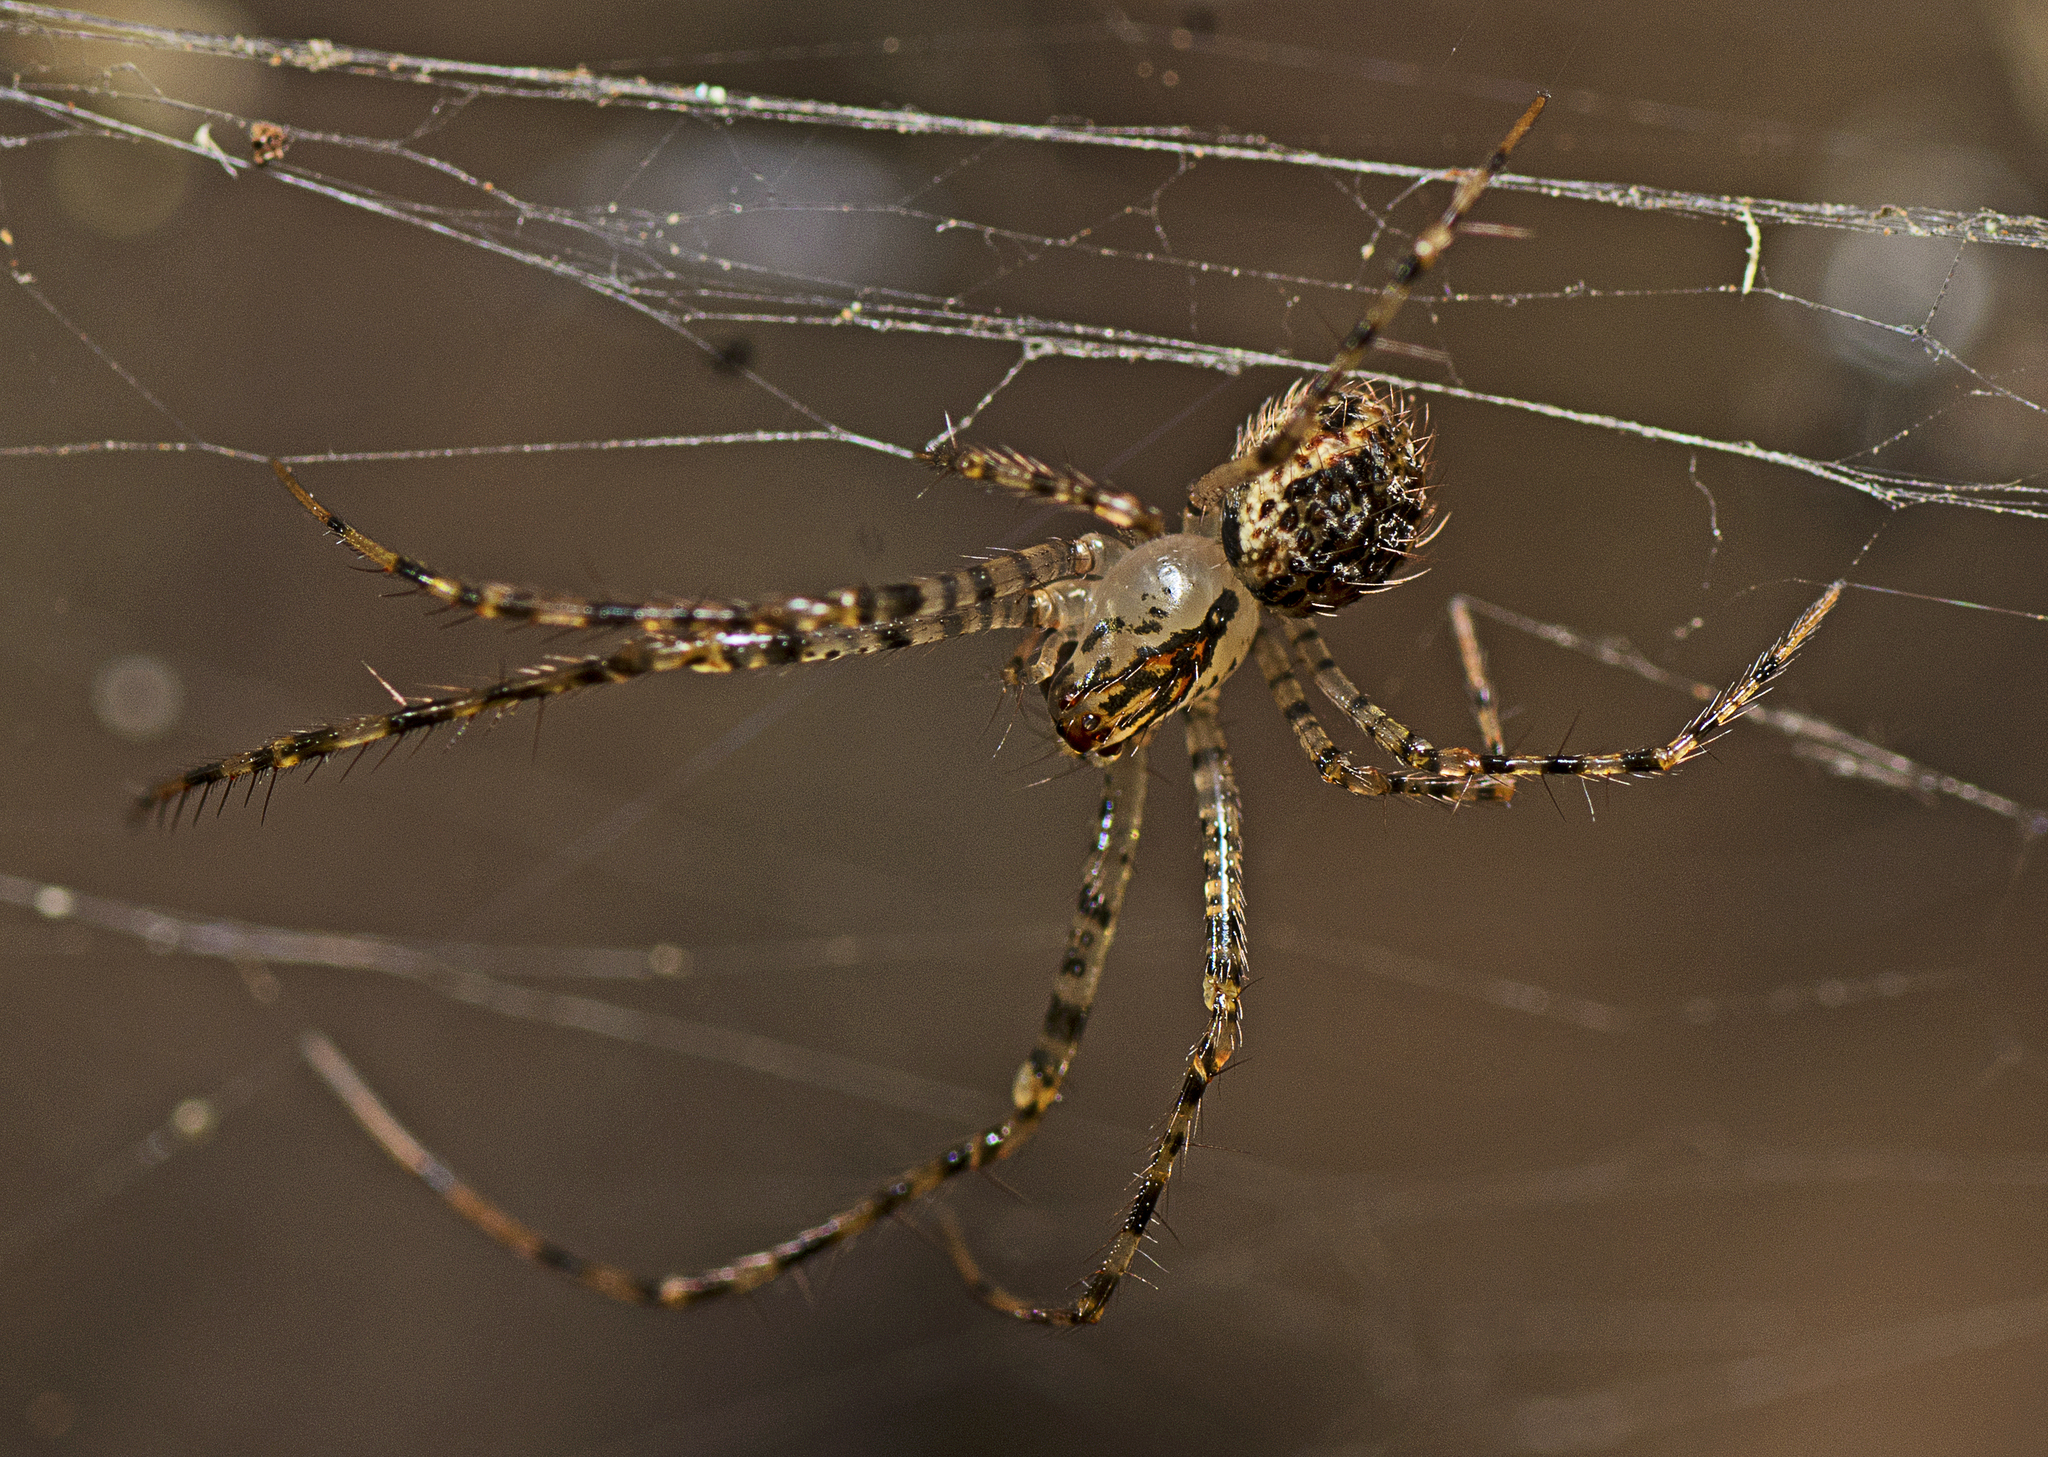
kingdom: Animalia
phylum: Arthropoda
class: Arachnida
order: Araneae
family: Mimetidae
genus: Australomimetus
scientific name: Australomimetus maculosus
